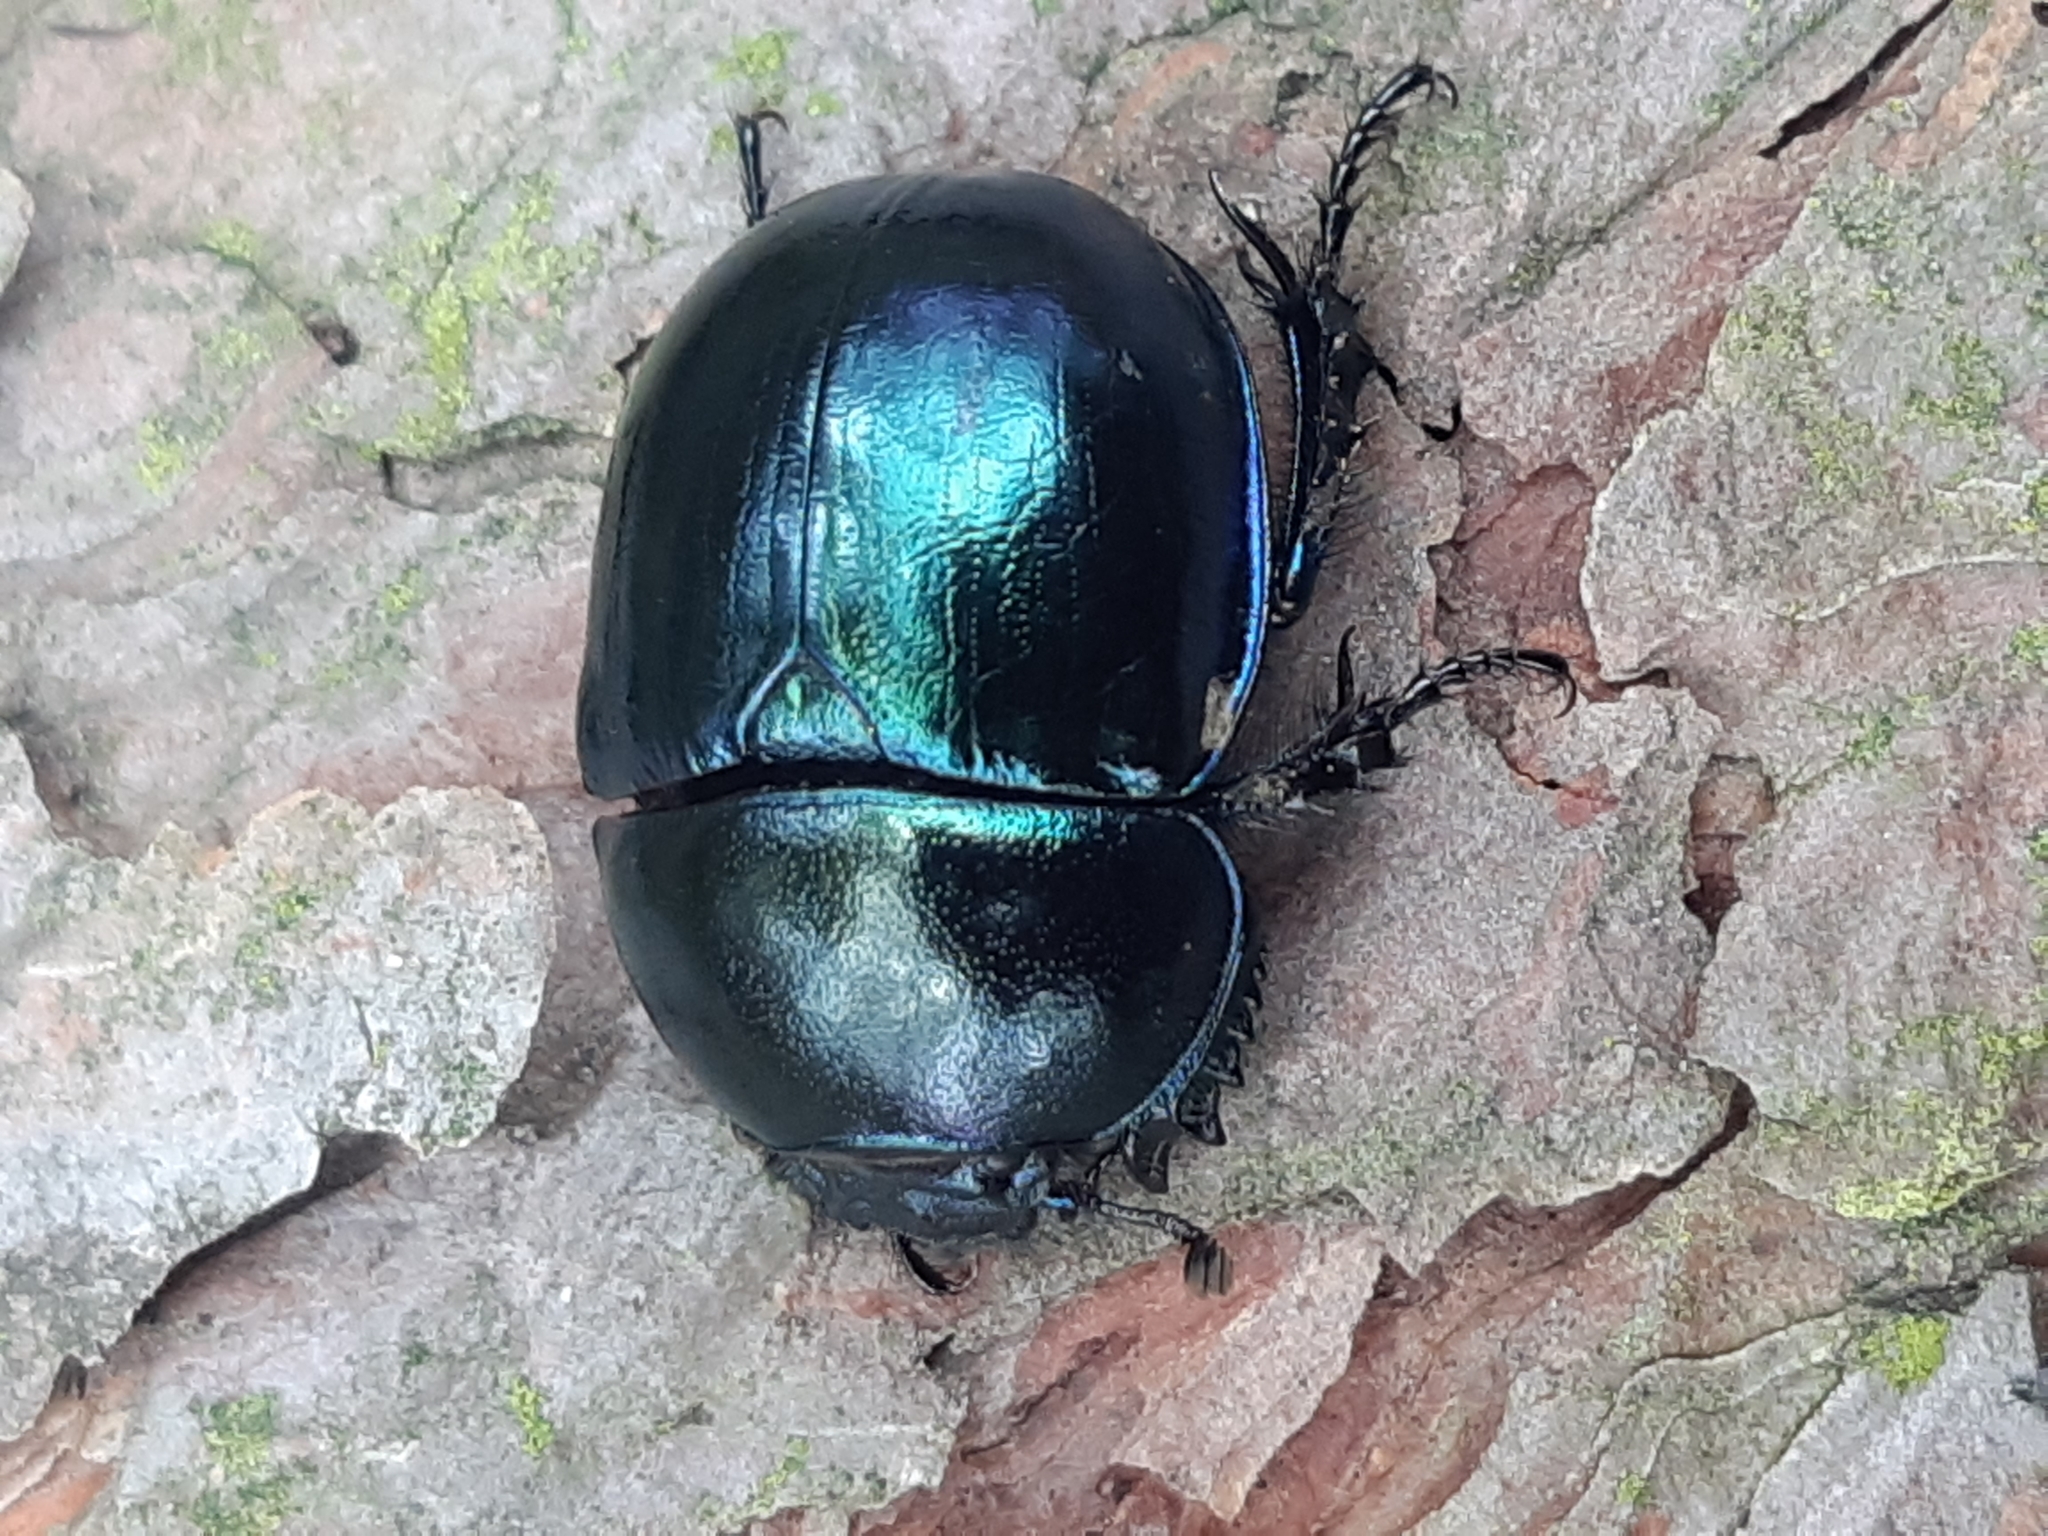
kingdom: Animalia
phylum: Arthropoda
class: Insecta
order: Coleoptera
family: Geotrupidae
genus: Trypocopris
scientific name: Trypocopris vernalis
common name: Spring dumbledor
